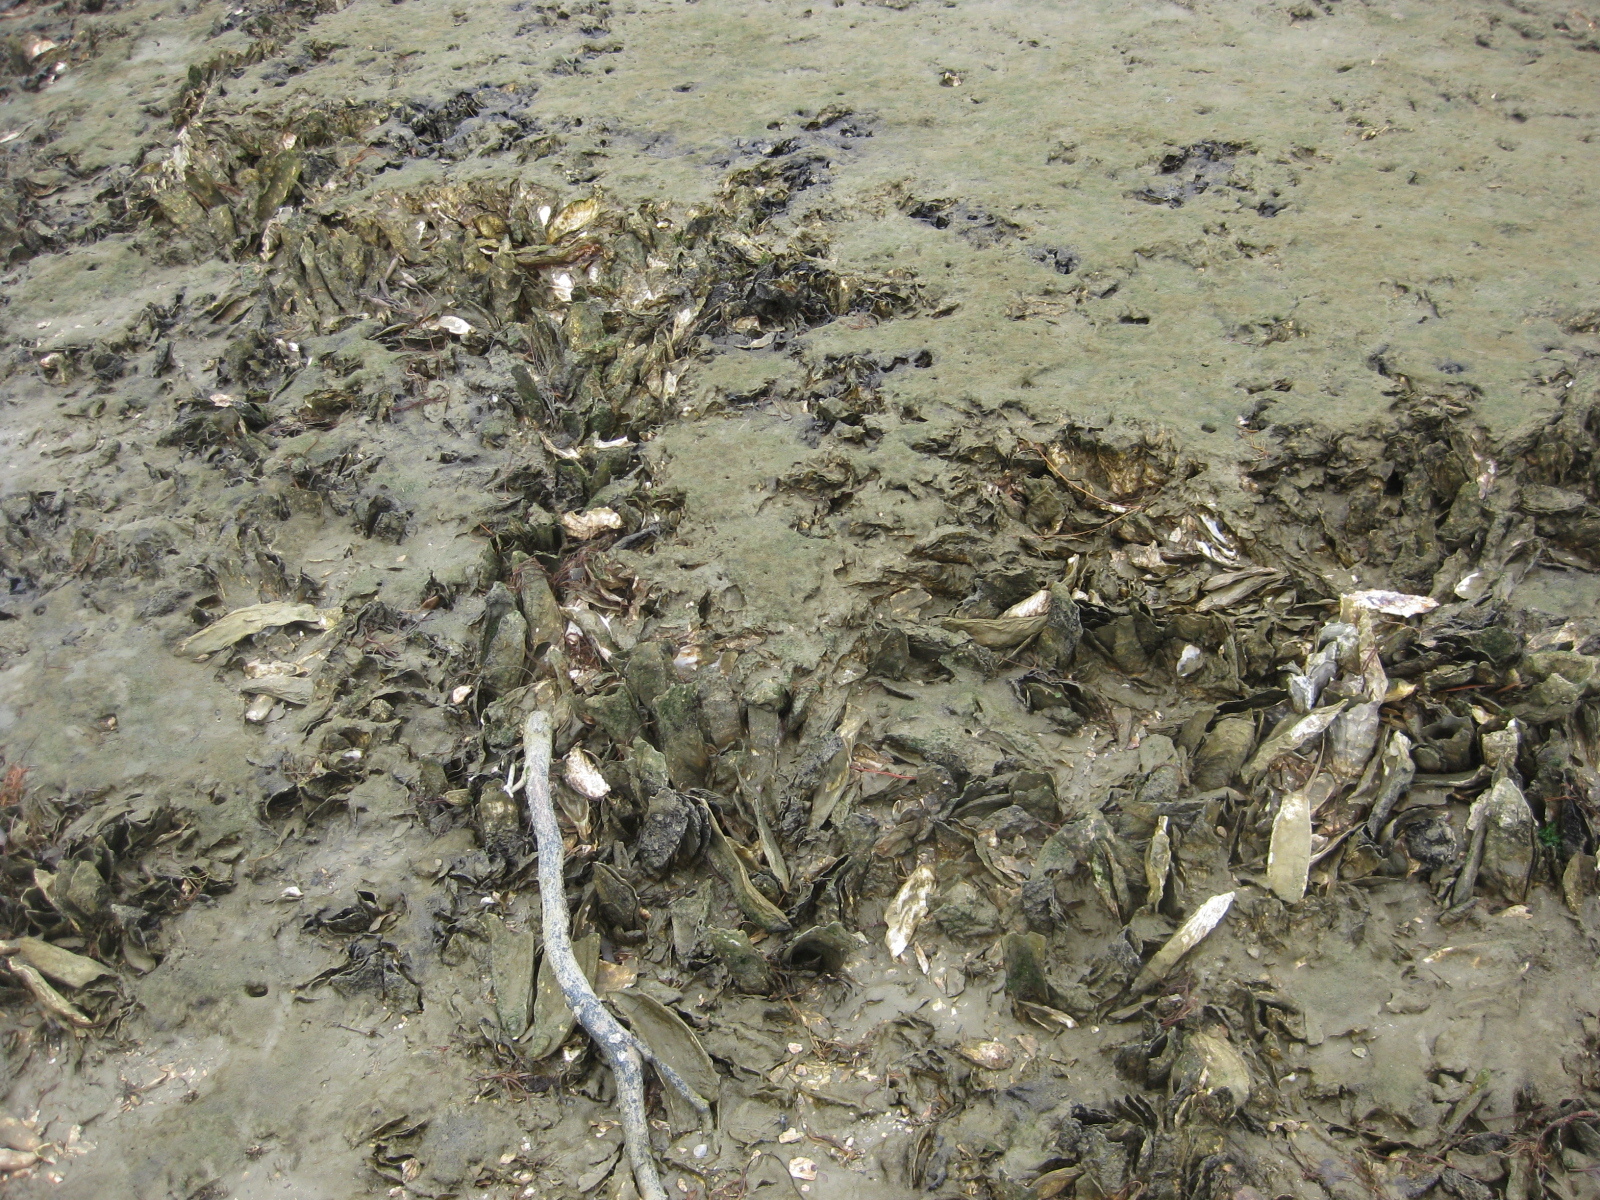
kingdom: Animalia
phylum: Mollusca
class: Bivalvia
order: Ostreida
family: Ostreidae
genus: Magallana
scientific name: Magallana gigas
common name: Pacific oyster
